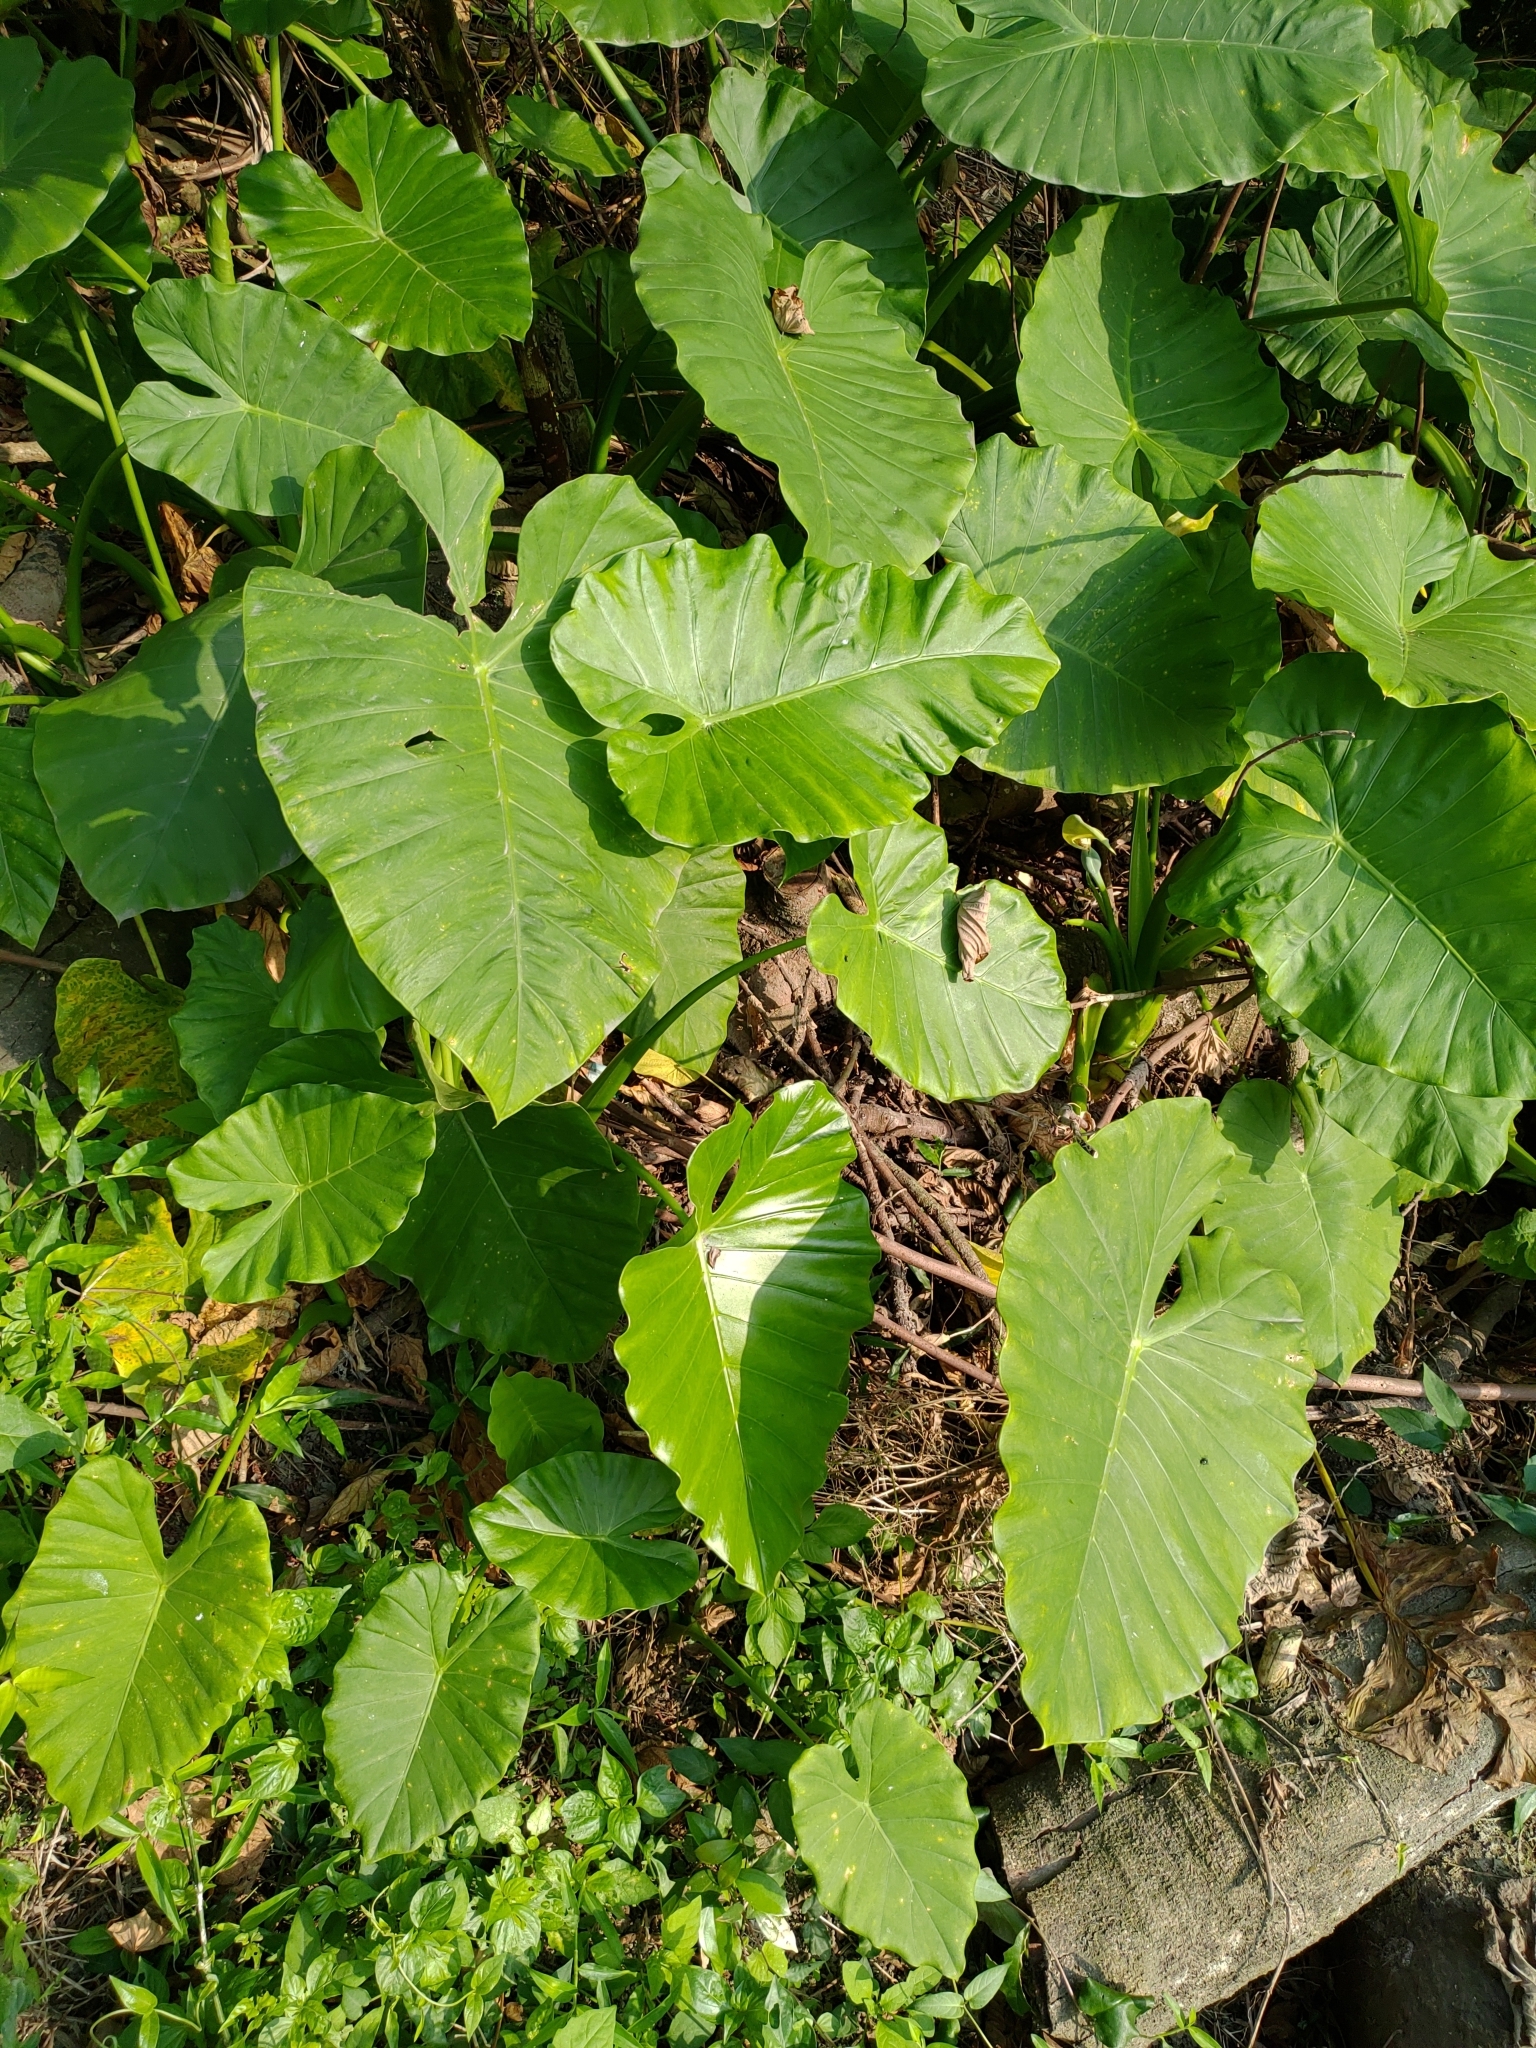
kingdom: Plantae
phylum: Tracheophyta
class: Liliopsida
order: Alismatales
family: Araceae
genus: Alocasia
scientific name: Alocasia odora
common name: Asian taro
